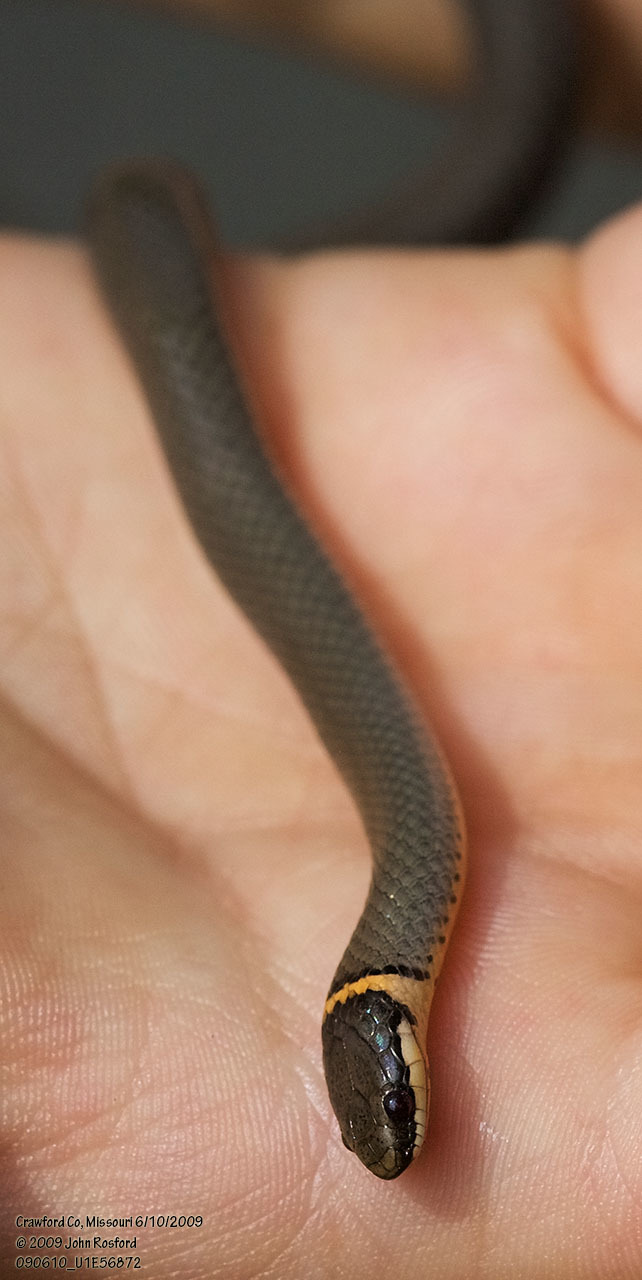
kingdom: Animalia
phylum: Chordata
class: Squamata
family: Colubridae
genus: Diadophis
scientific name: Diadophis punctatus
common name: Ringneck snake
